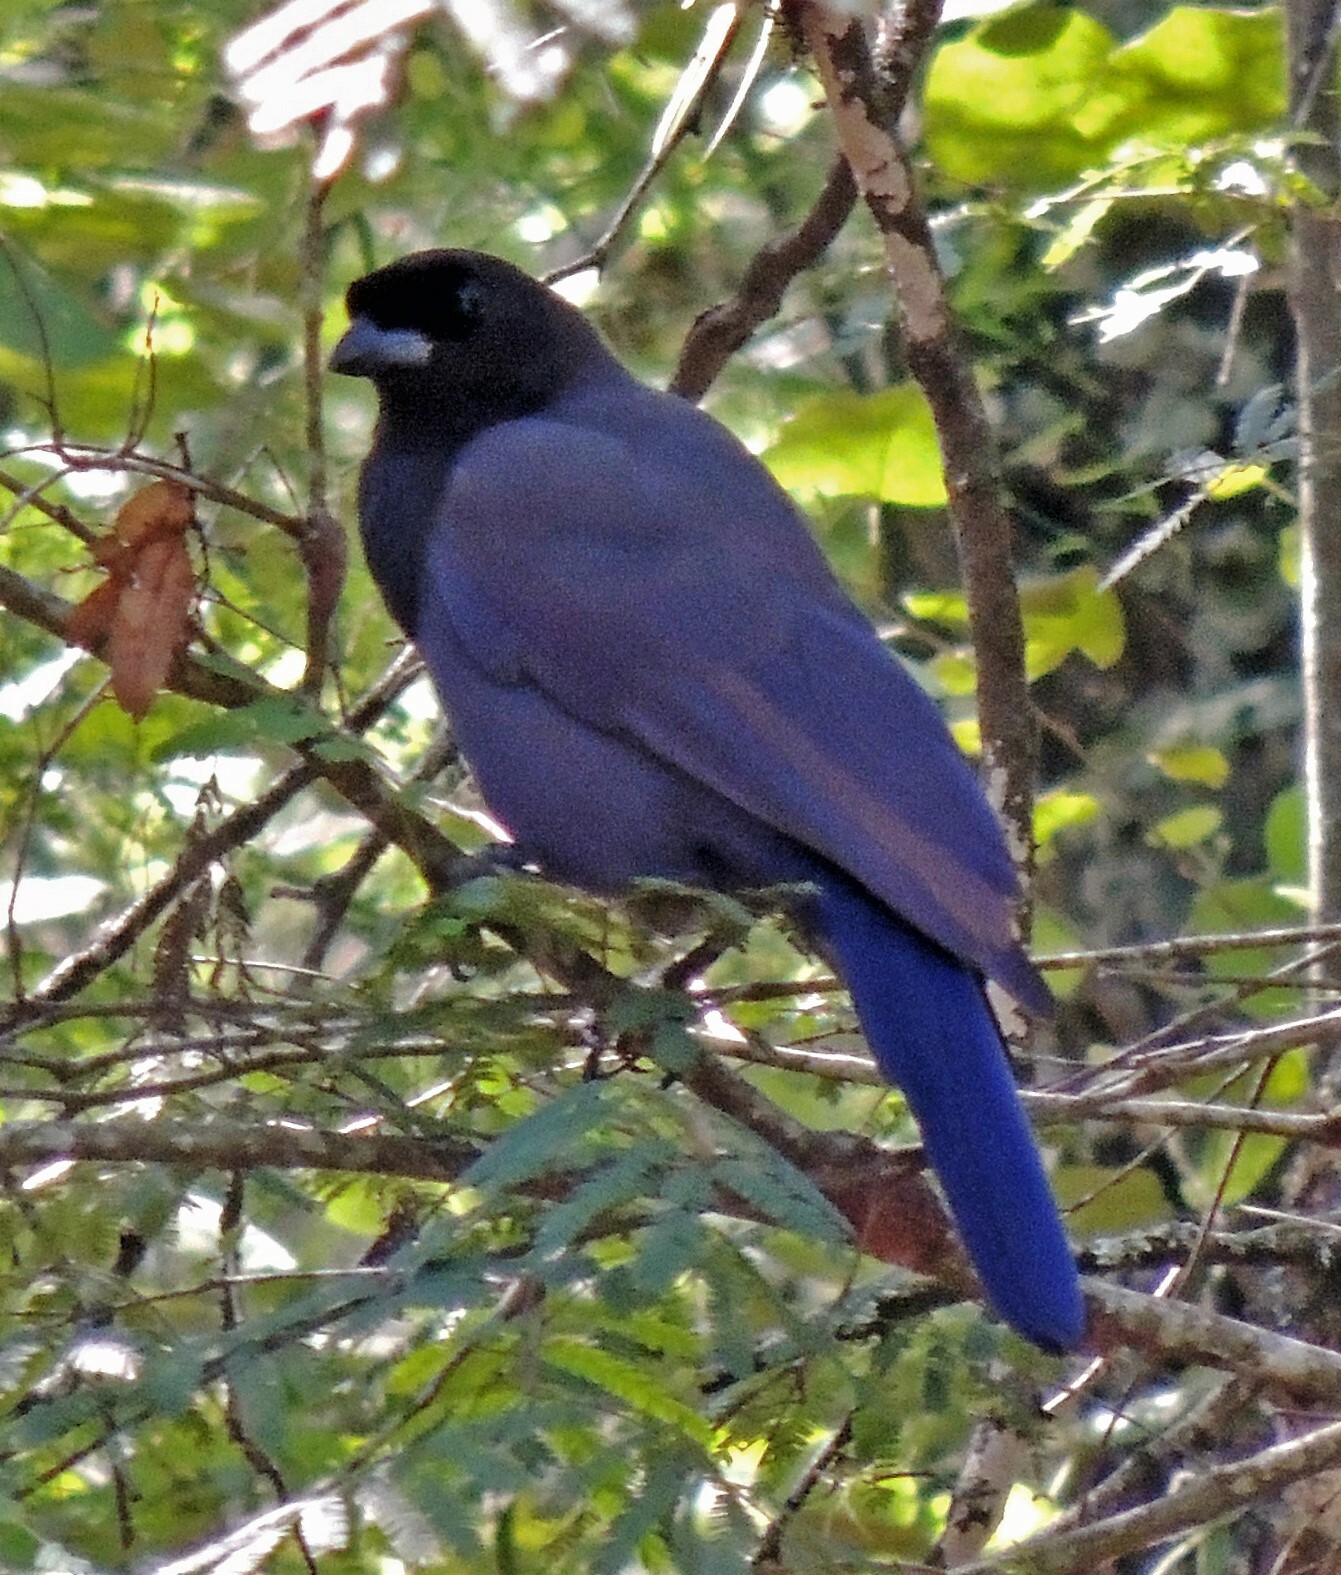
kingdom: Animalia
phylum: Chordata
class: Aves
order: Passeriformes
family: Corvidae
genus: Cyanocorax
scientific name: Cyanocorax cyanomelas
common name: Purplish jay
